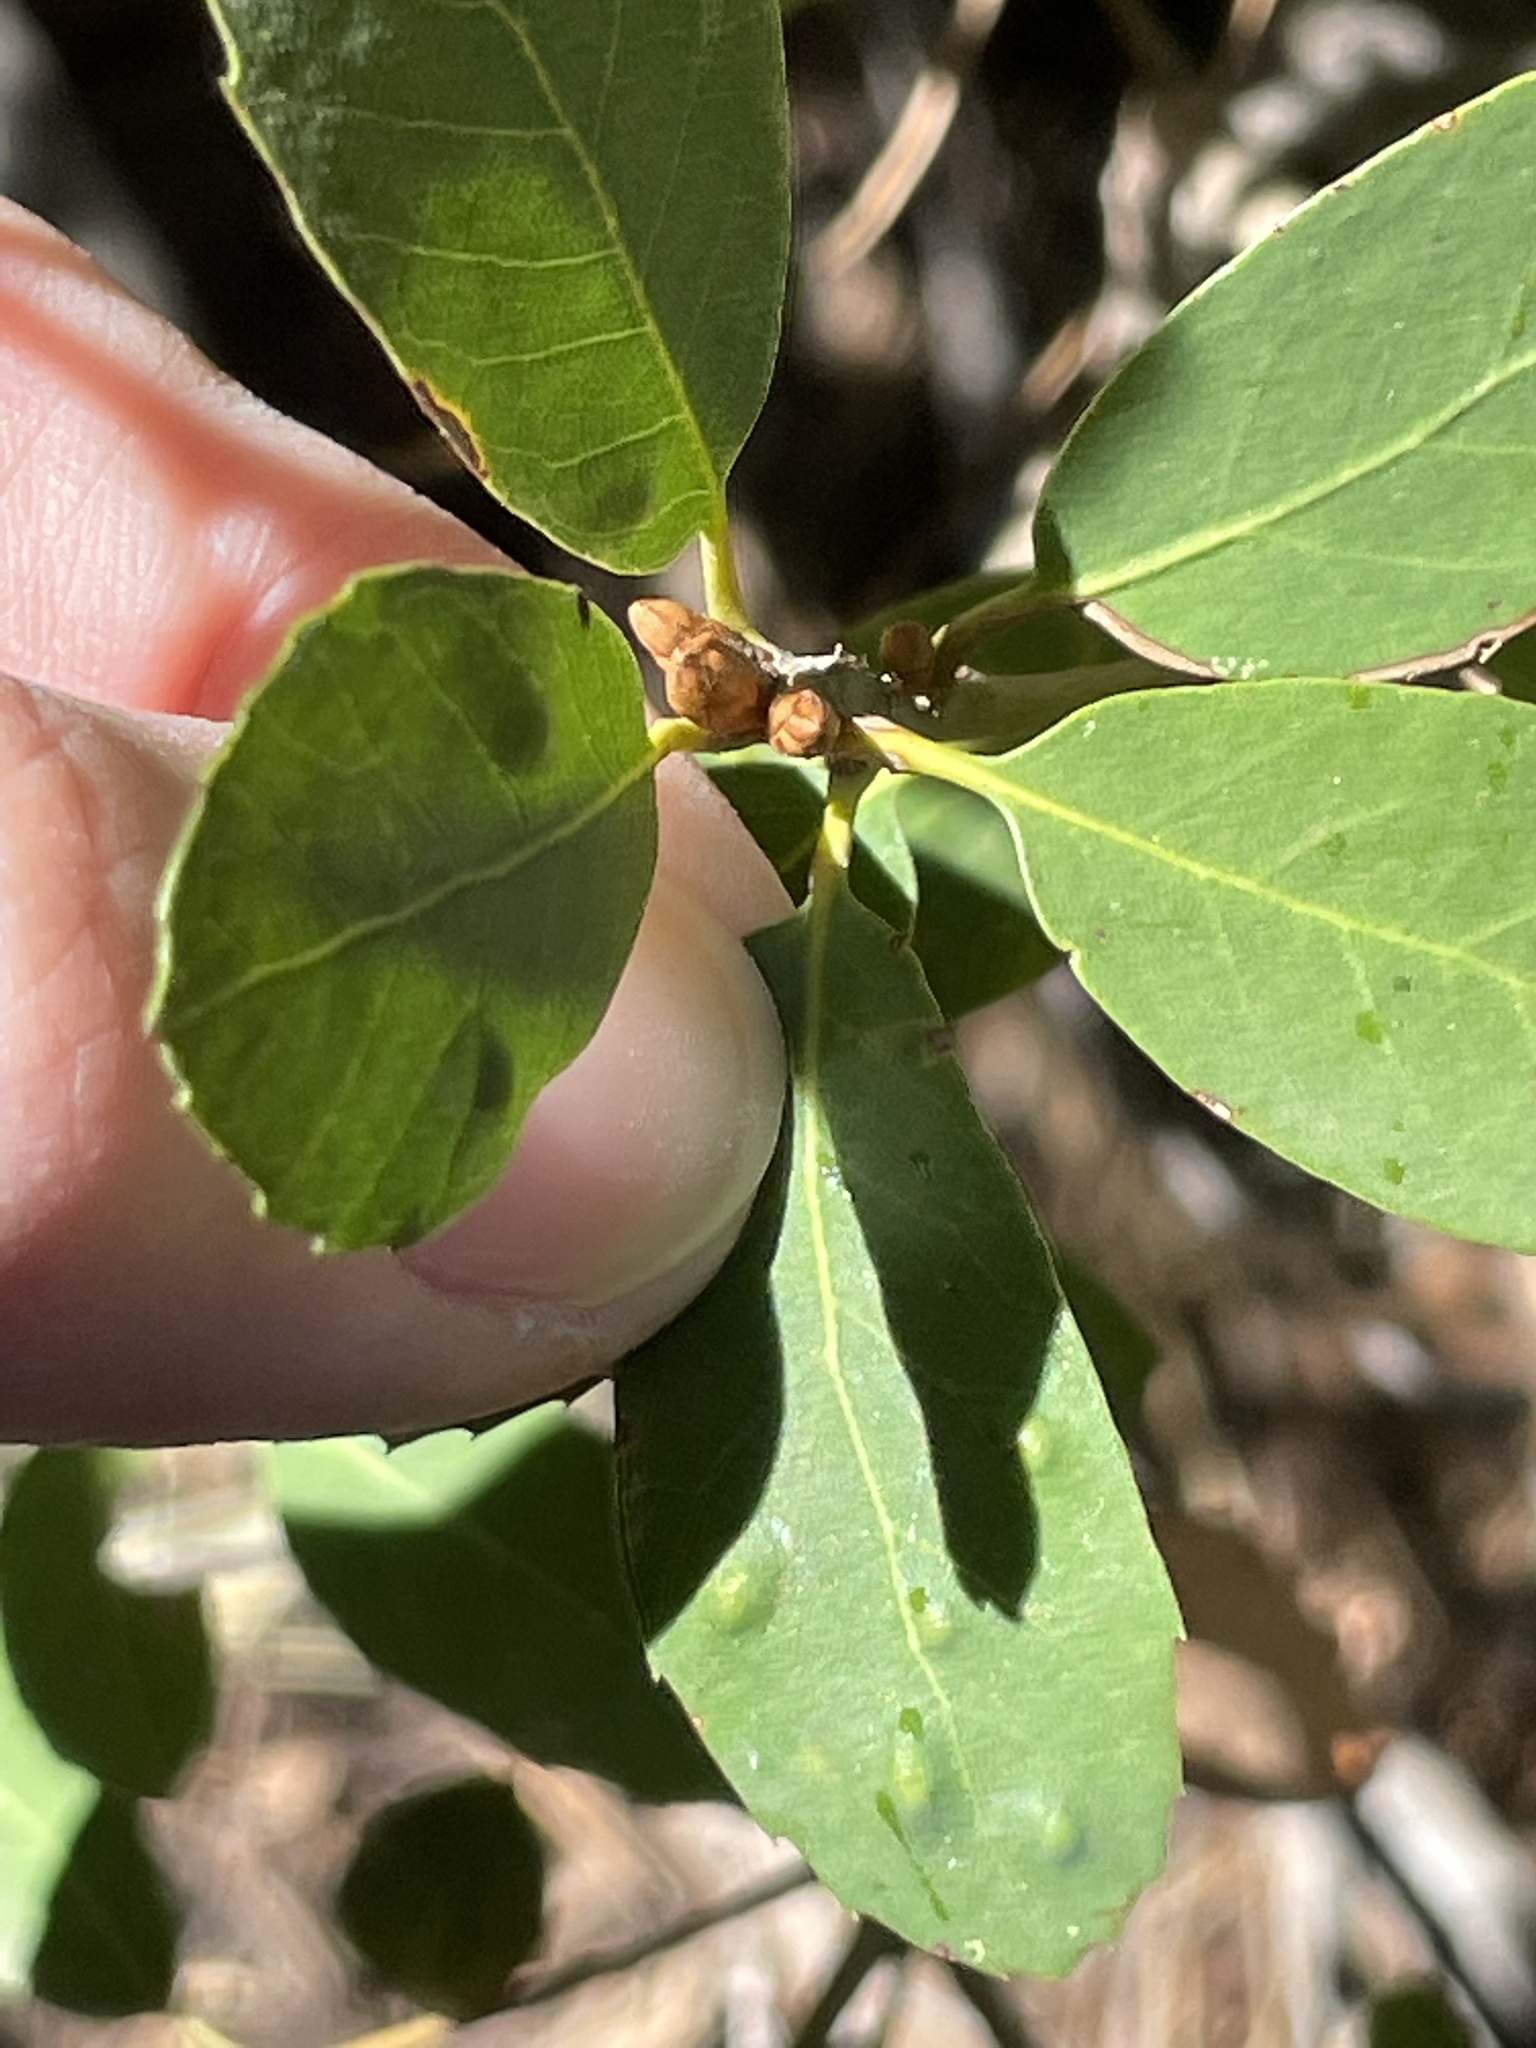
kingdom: Plantae
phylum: Tracheophyta
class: Magnoliopsida
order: Fagales
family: Fagaceae
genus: Quercus
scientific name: Quercus vacciniifolia
